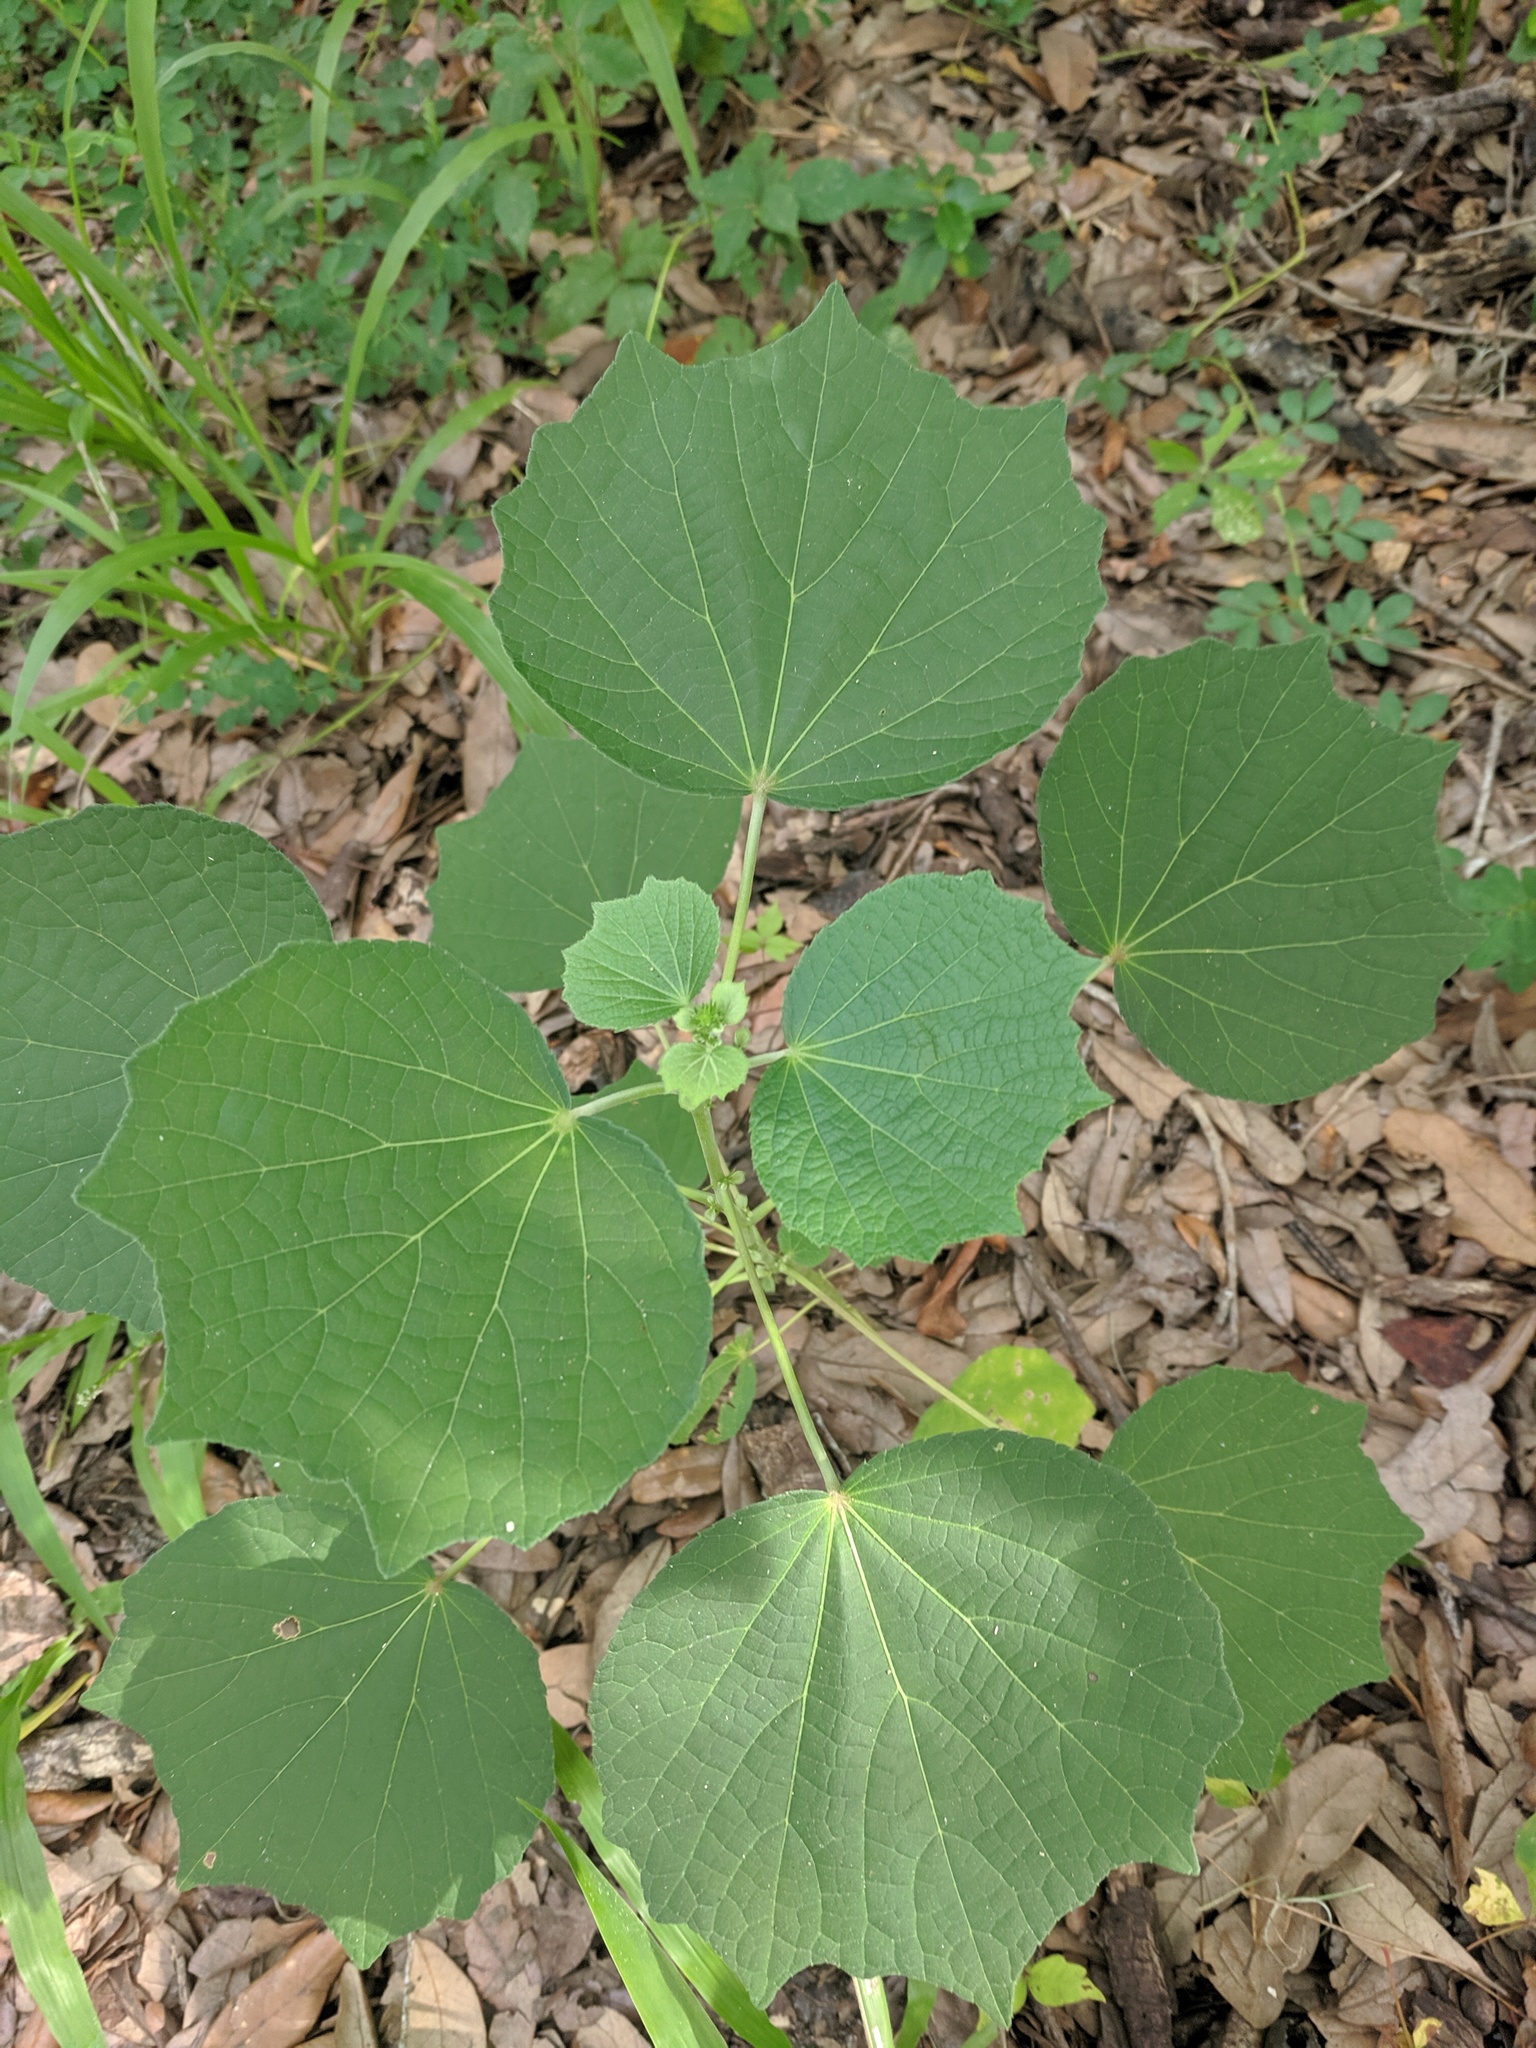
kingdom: Plantae
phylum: Tracheophyta
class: Magnoliopsida
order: Malvales
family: Malvaceae
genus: Urena
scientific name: Urena lobata
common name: Caesarweed
